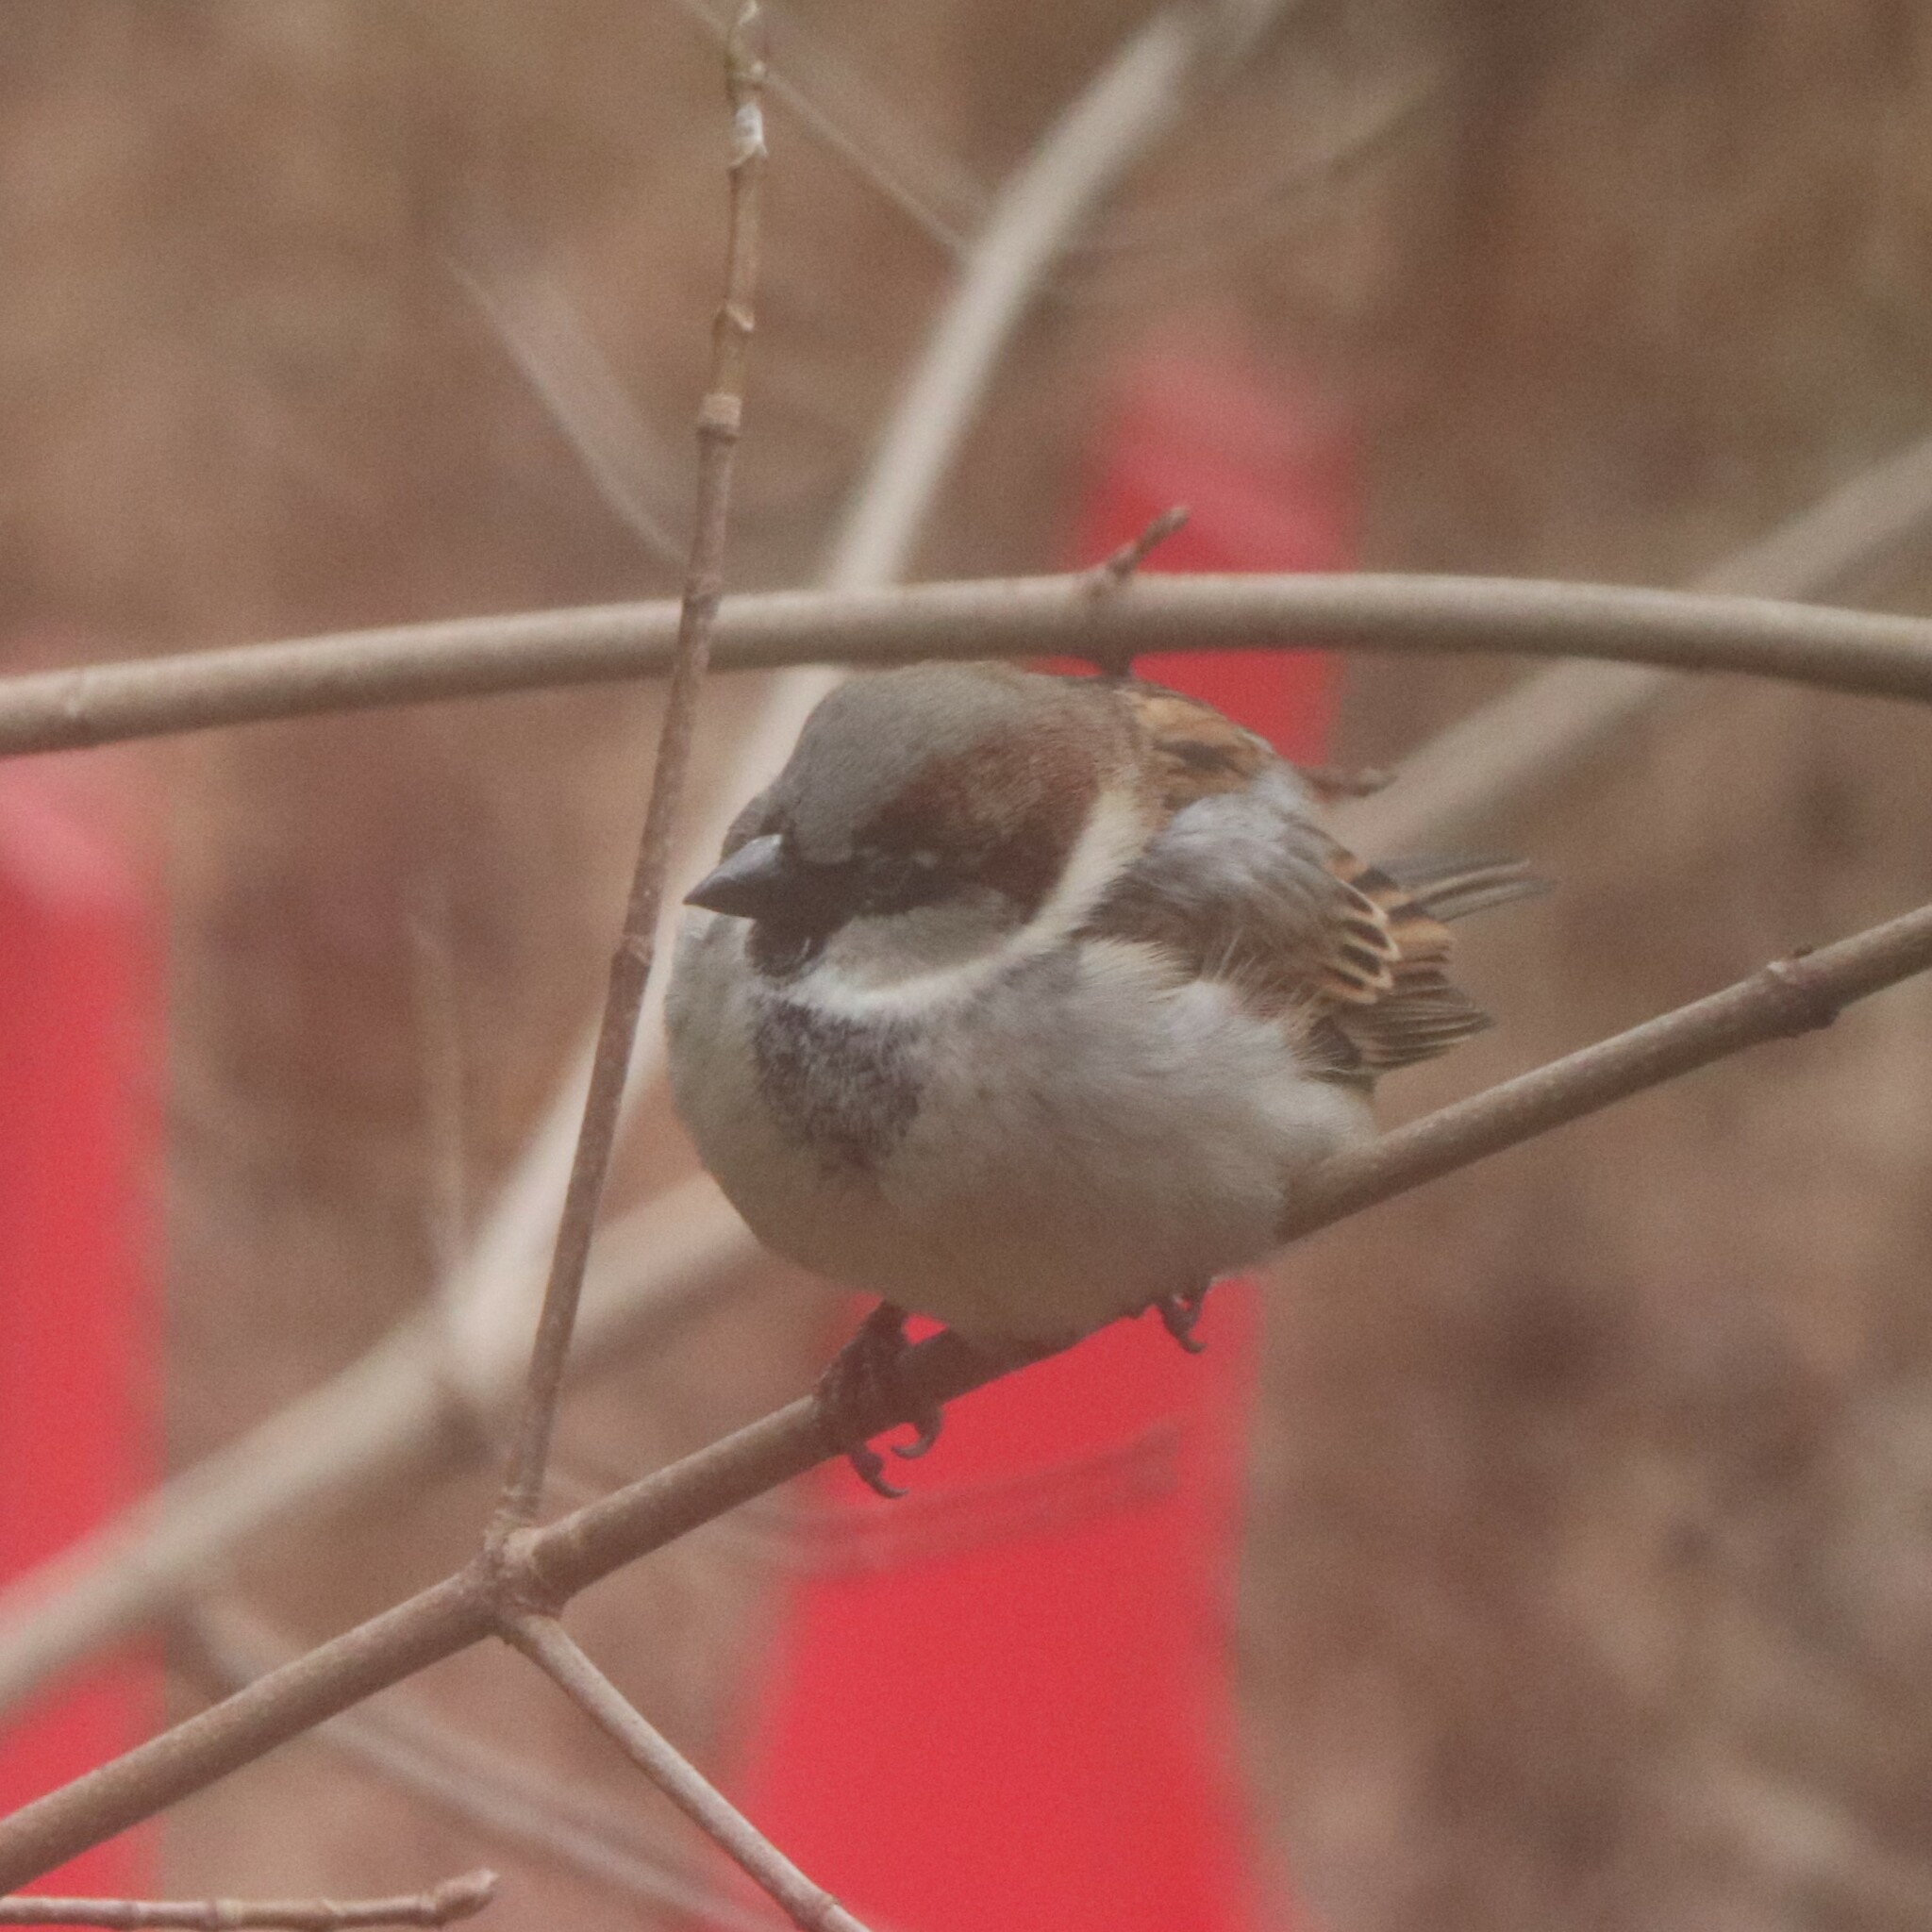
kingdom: Animalia
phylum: Chordata
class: Aves
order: Passeriformes
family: Passeridae
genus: Passer
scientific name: Passer domesticus
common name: House sparrow
